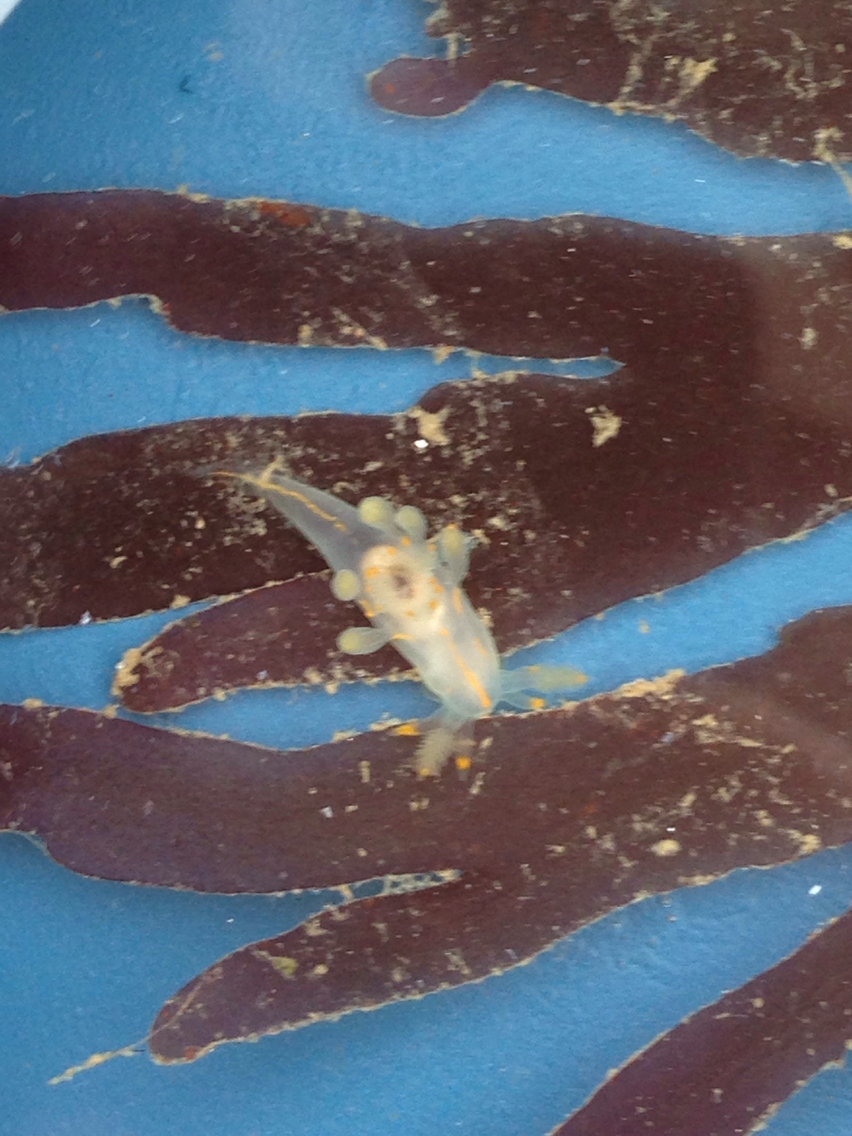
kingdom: Animalia
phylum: Mollusca
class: Gastropoda
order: Nudibranchia
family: Goniodorididae
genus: Ancula
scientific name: Ancula pacifica
